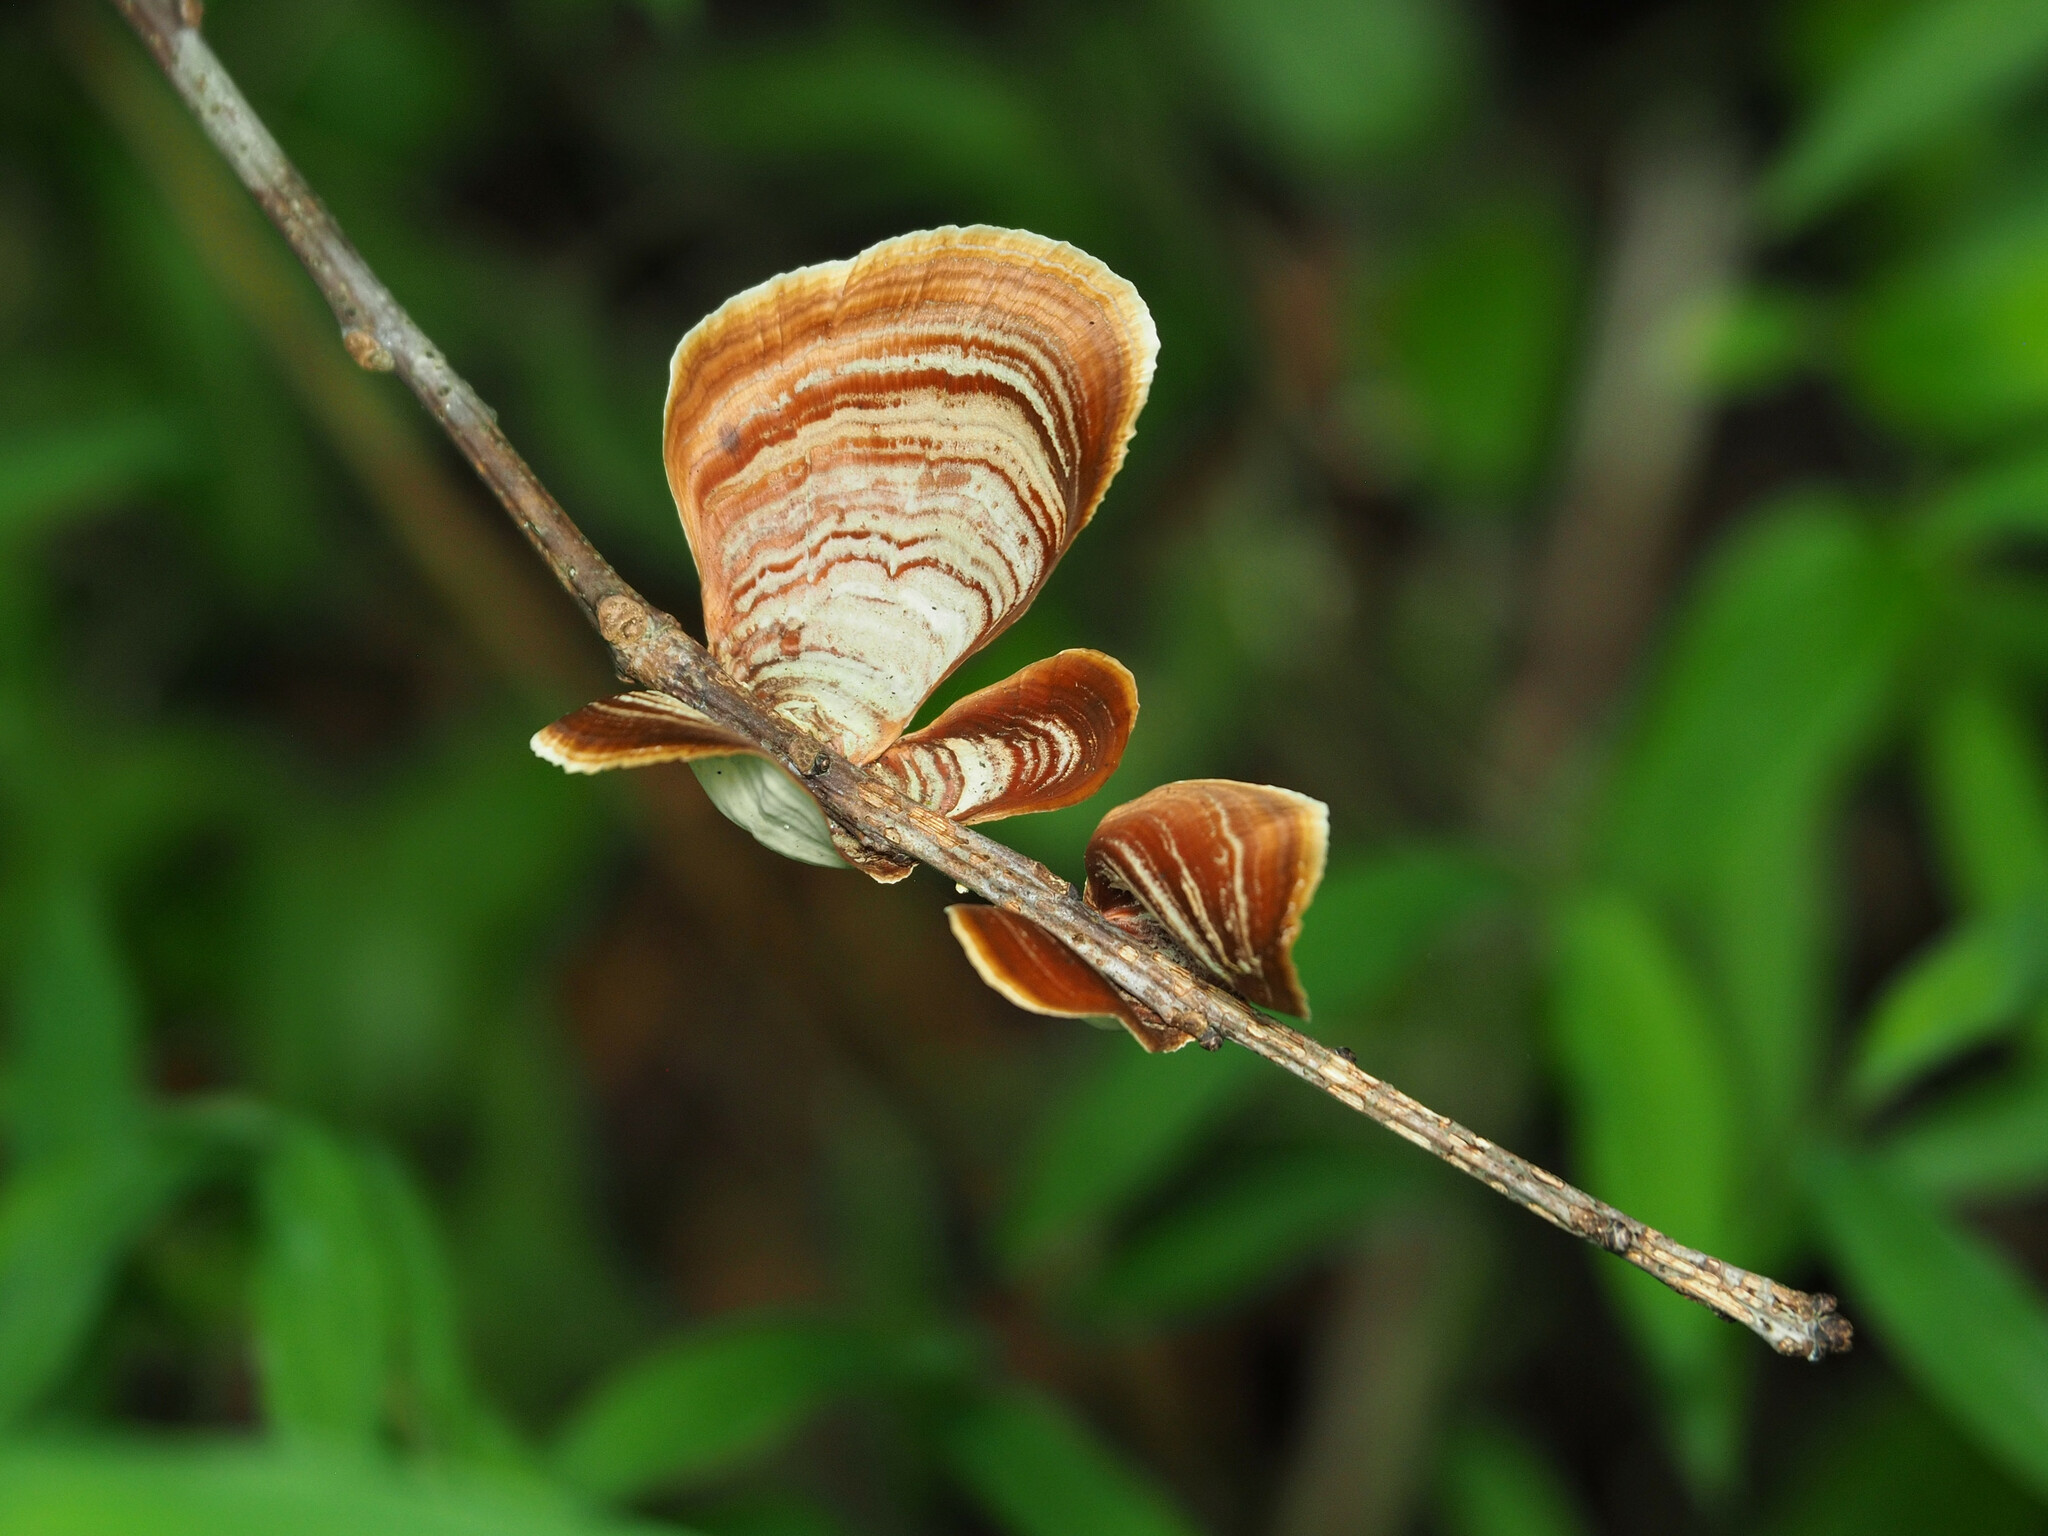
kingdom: Fungi
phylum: Basidiomycota
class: Agaricomycetes
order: Russulales
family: Stereaceae
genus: Stereum
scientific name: Stereum lobatum
